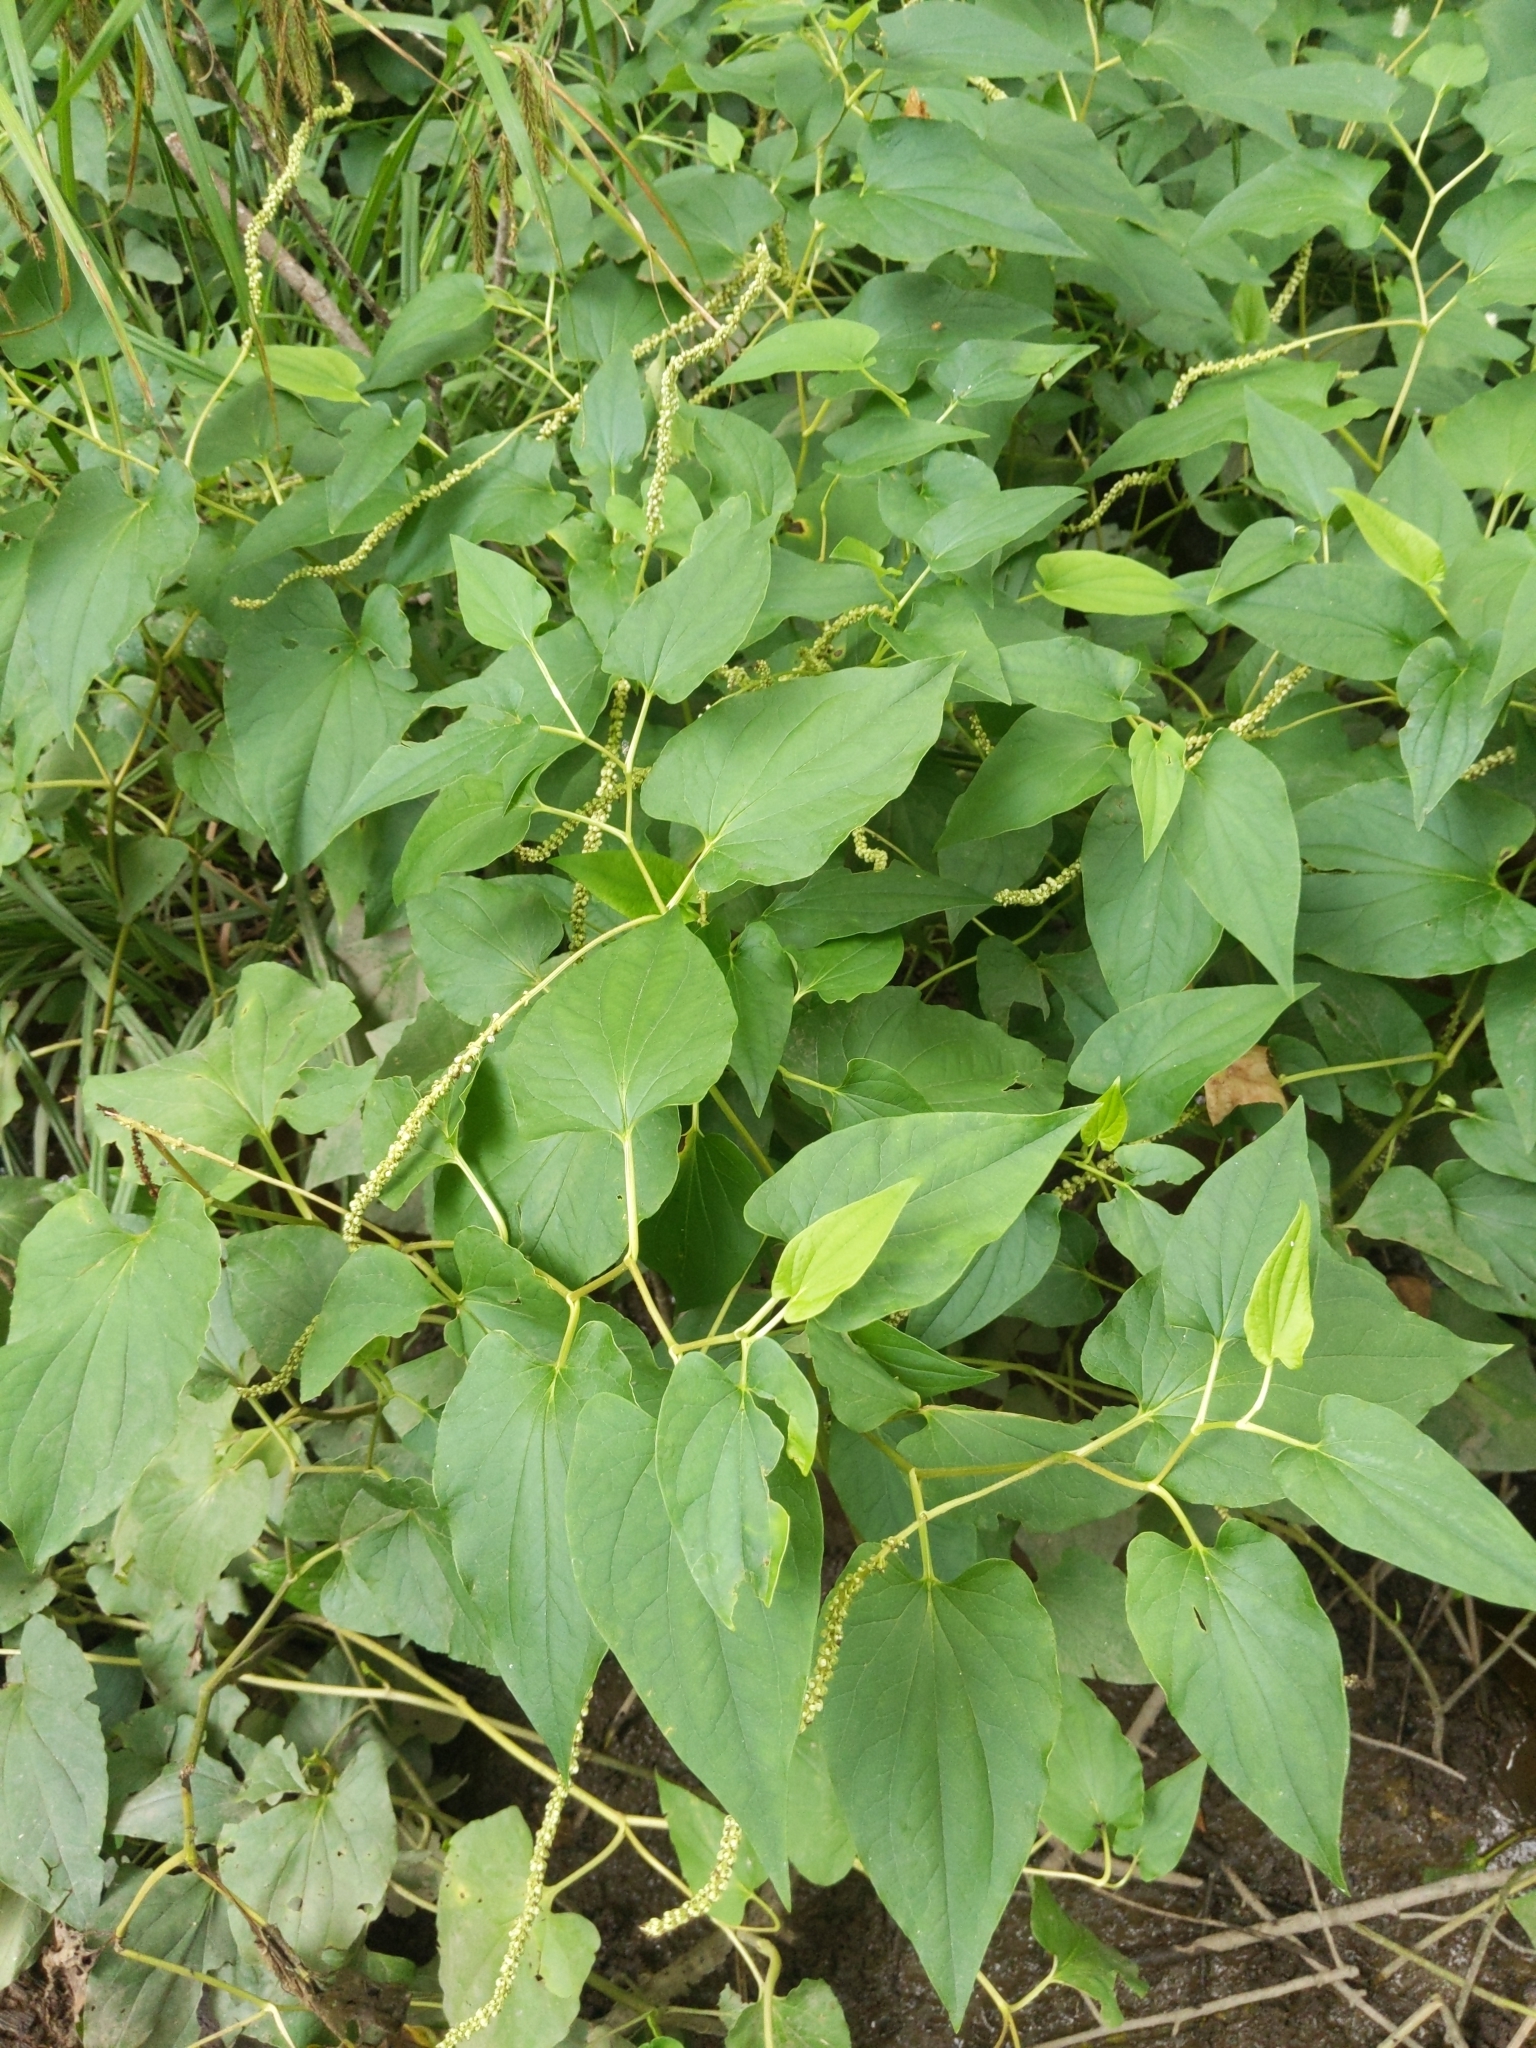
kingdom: Plantae
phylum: Tracheophyta
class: Magnoliopsida
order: Piperales
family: Saururaceae
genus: Saururus
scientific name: Saururus cernuus
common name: Lizard's-tail
